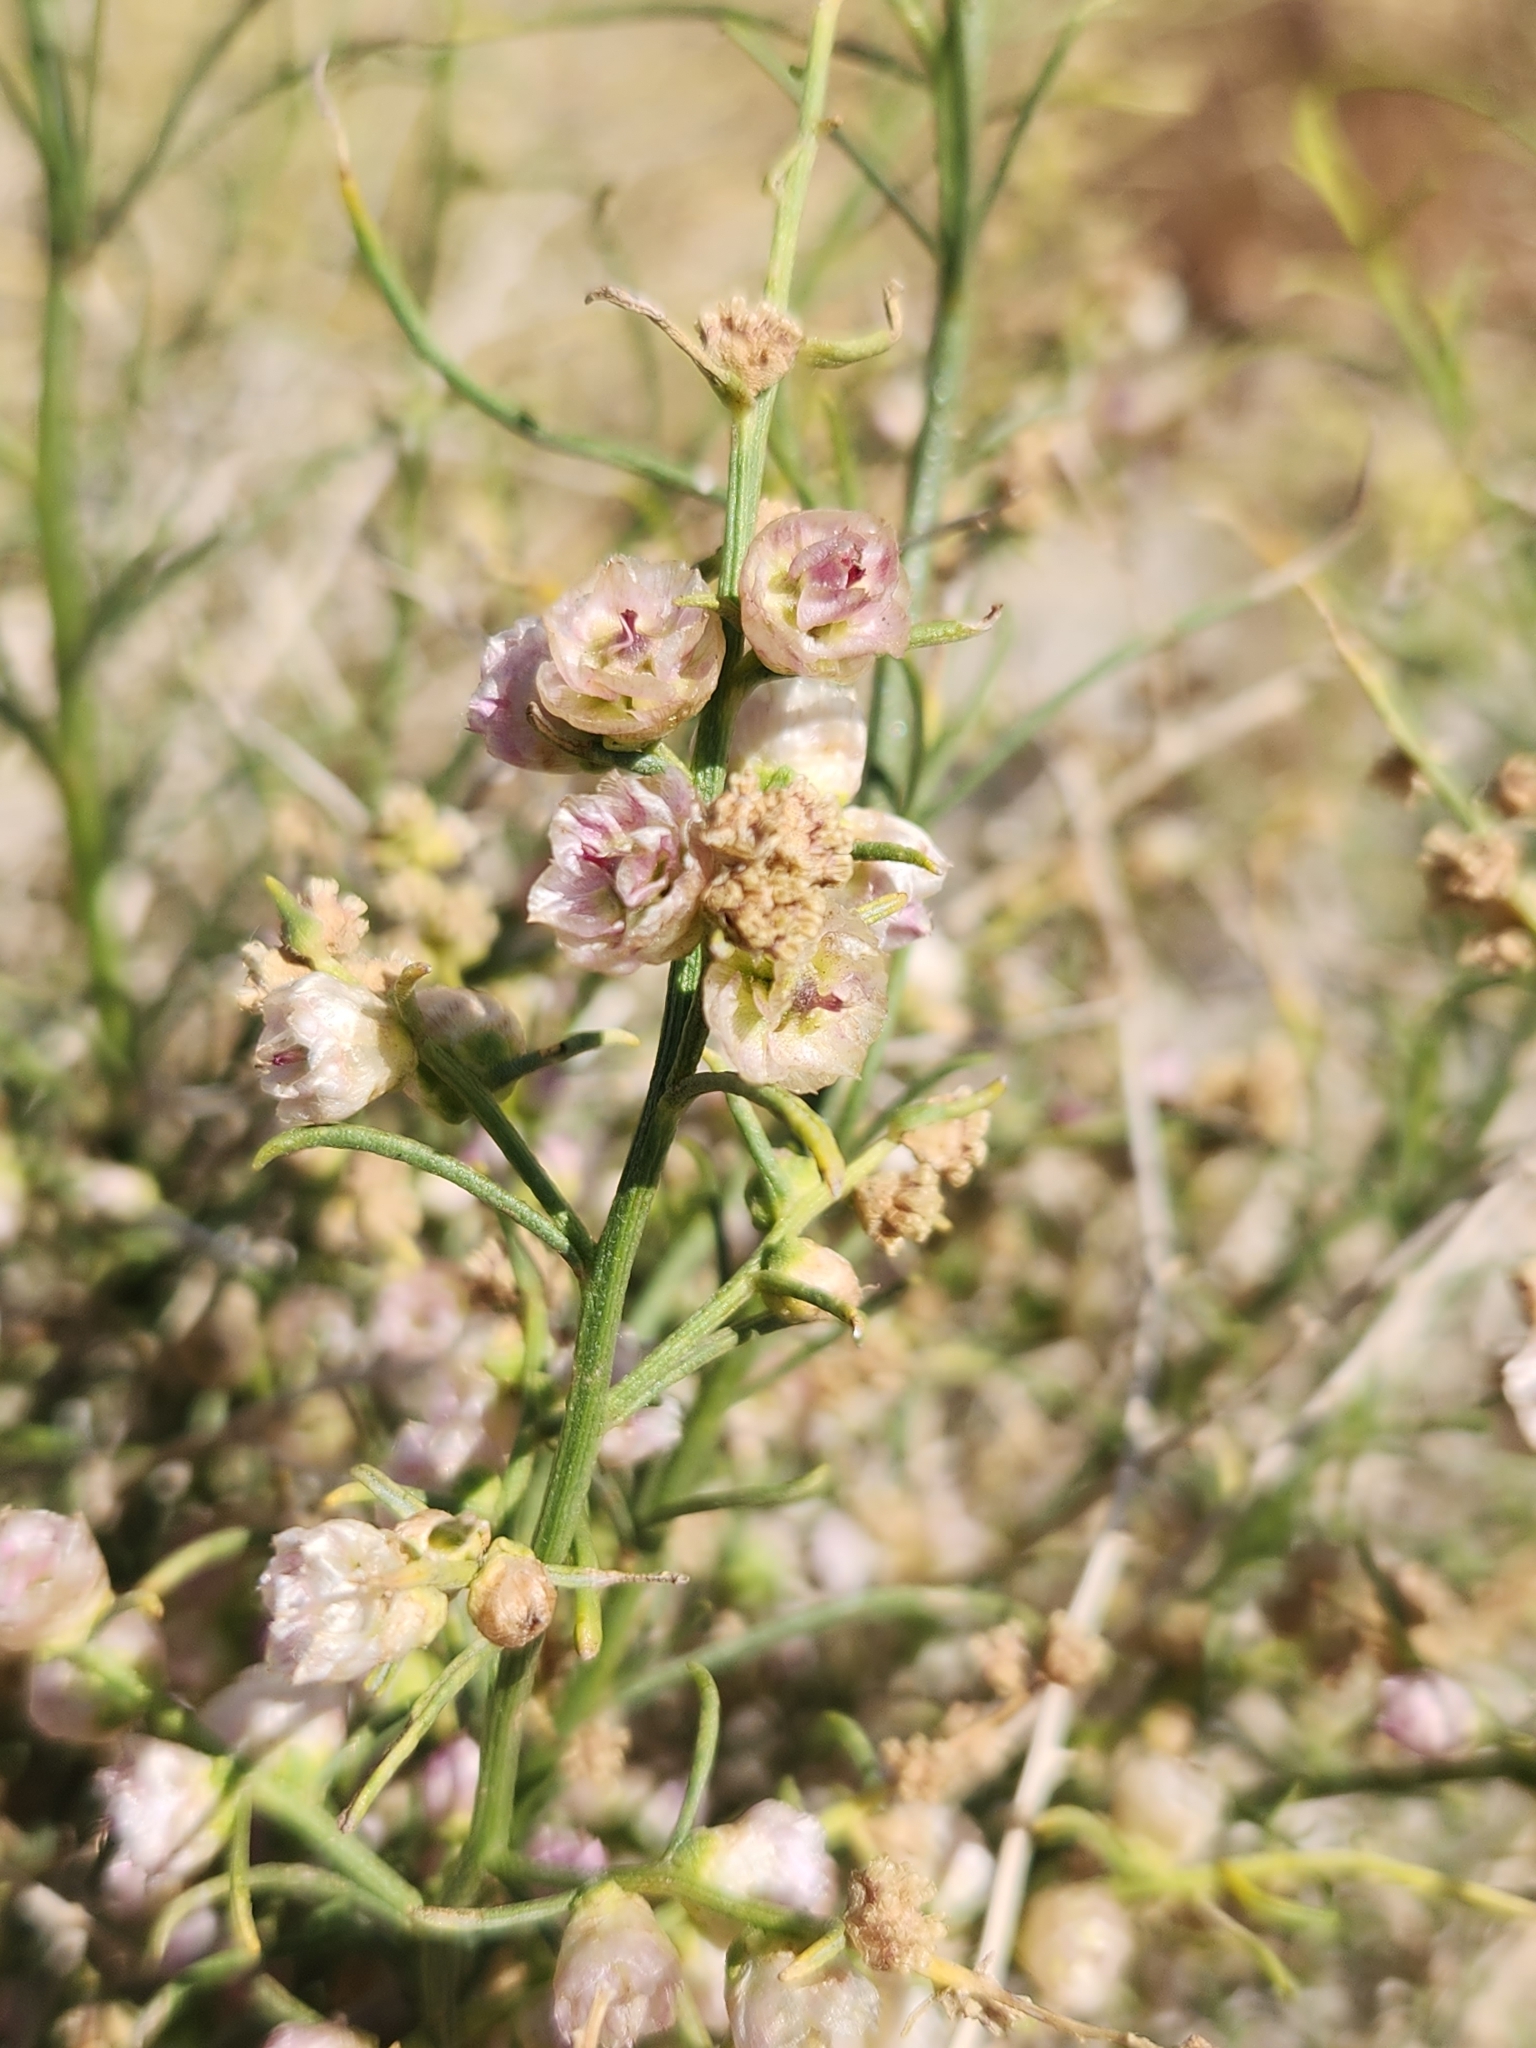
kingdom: Plantae
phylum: Tracheophyta
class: Magnoliopsida
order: Asterales
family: Asteraceae
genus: Ambrosia
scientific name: Ambrosia salsola
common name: Burrobrush
